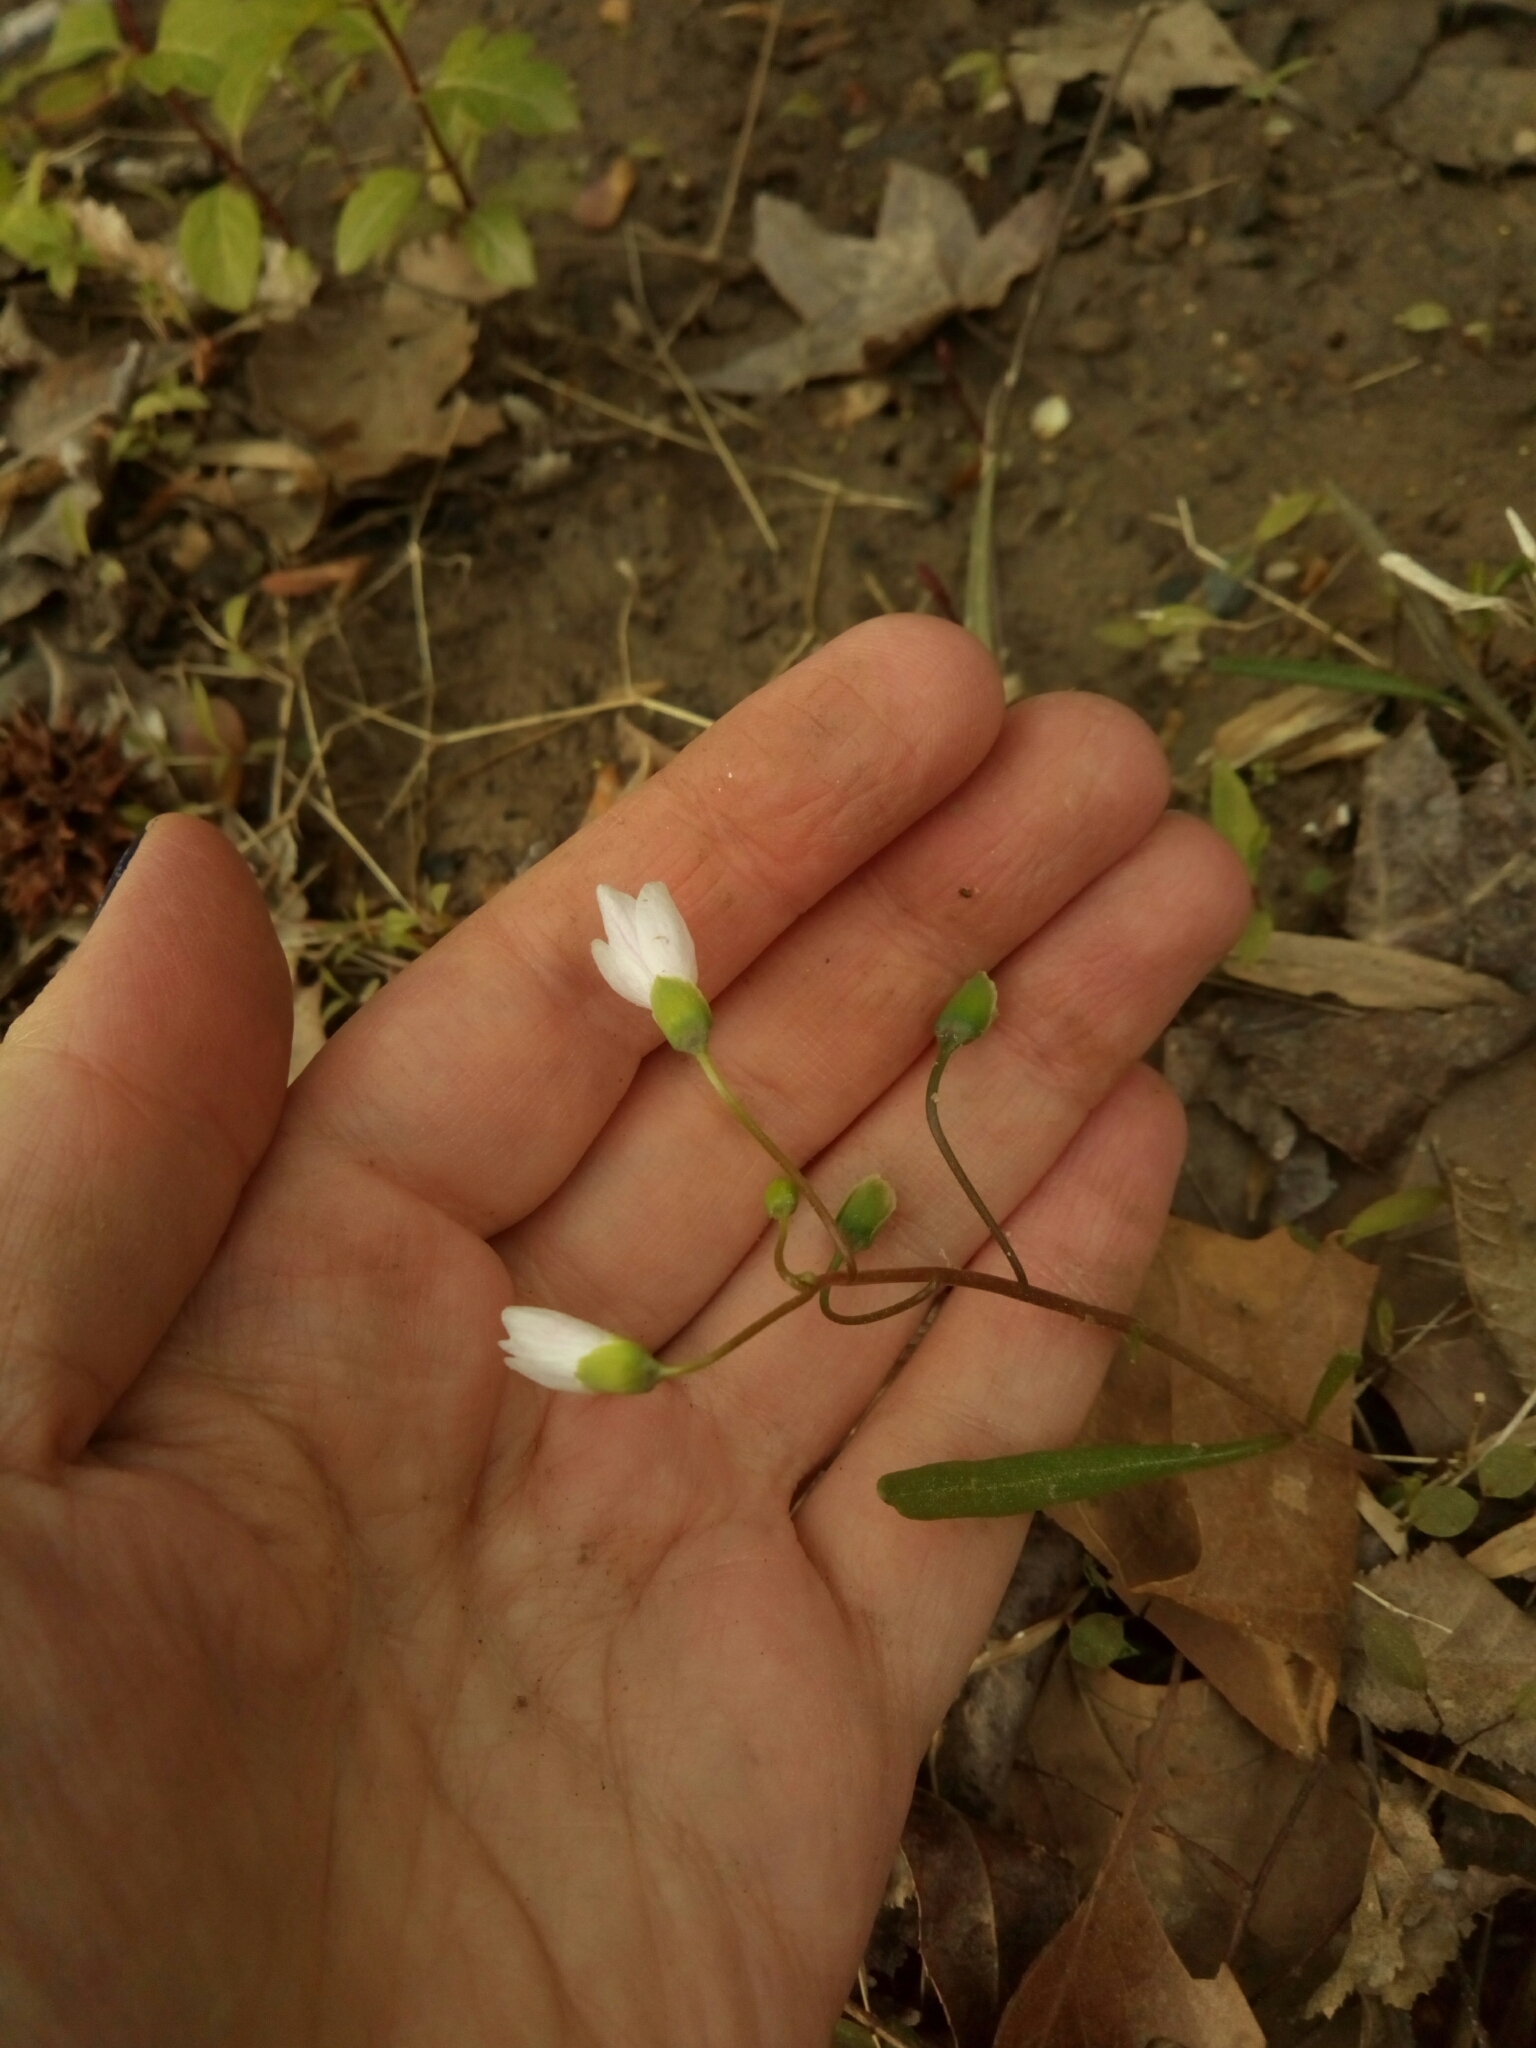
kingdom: Plantae
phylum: Tracheophyta
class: Magnoliopsida
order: Caryophyllales
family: Montiaceae
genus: Claytonia
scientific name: Claytonia virginica
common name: Virginia springbeauty
